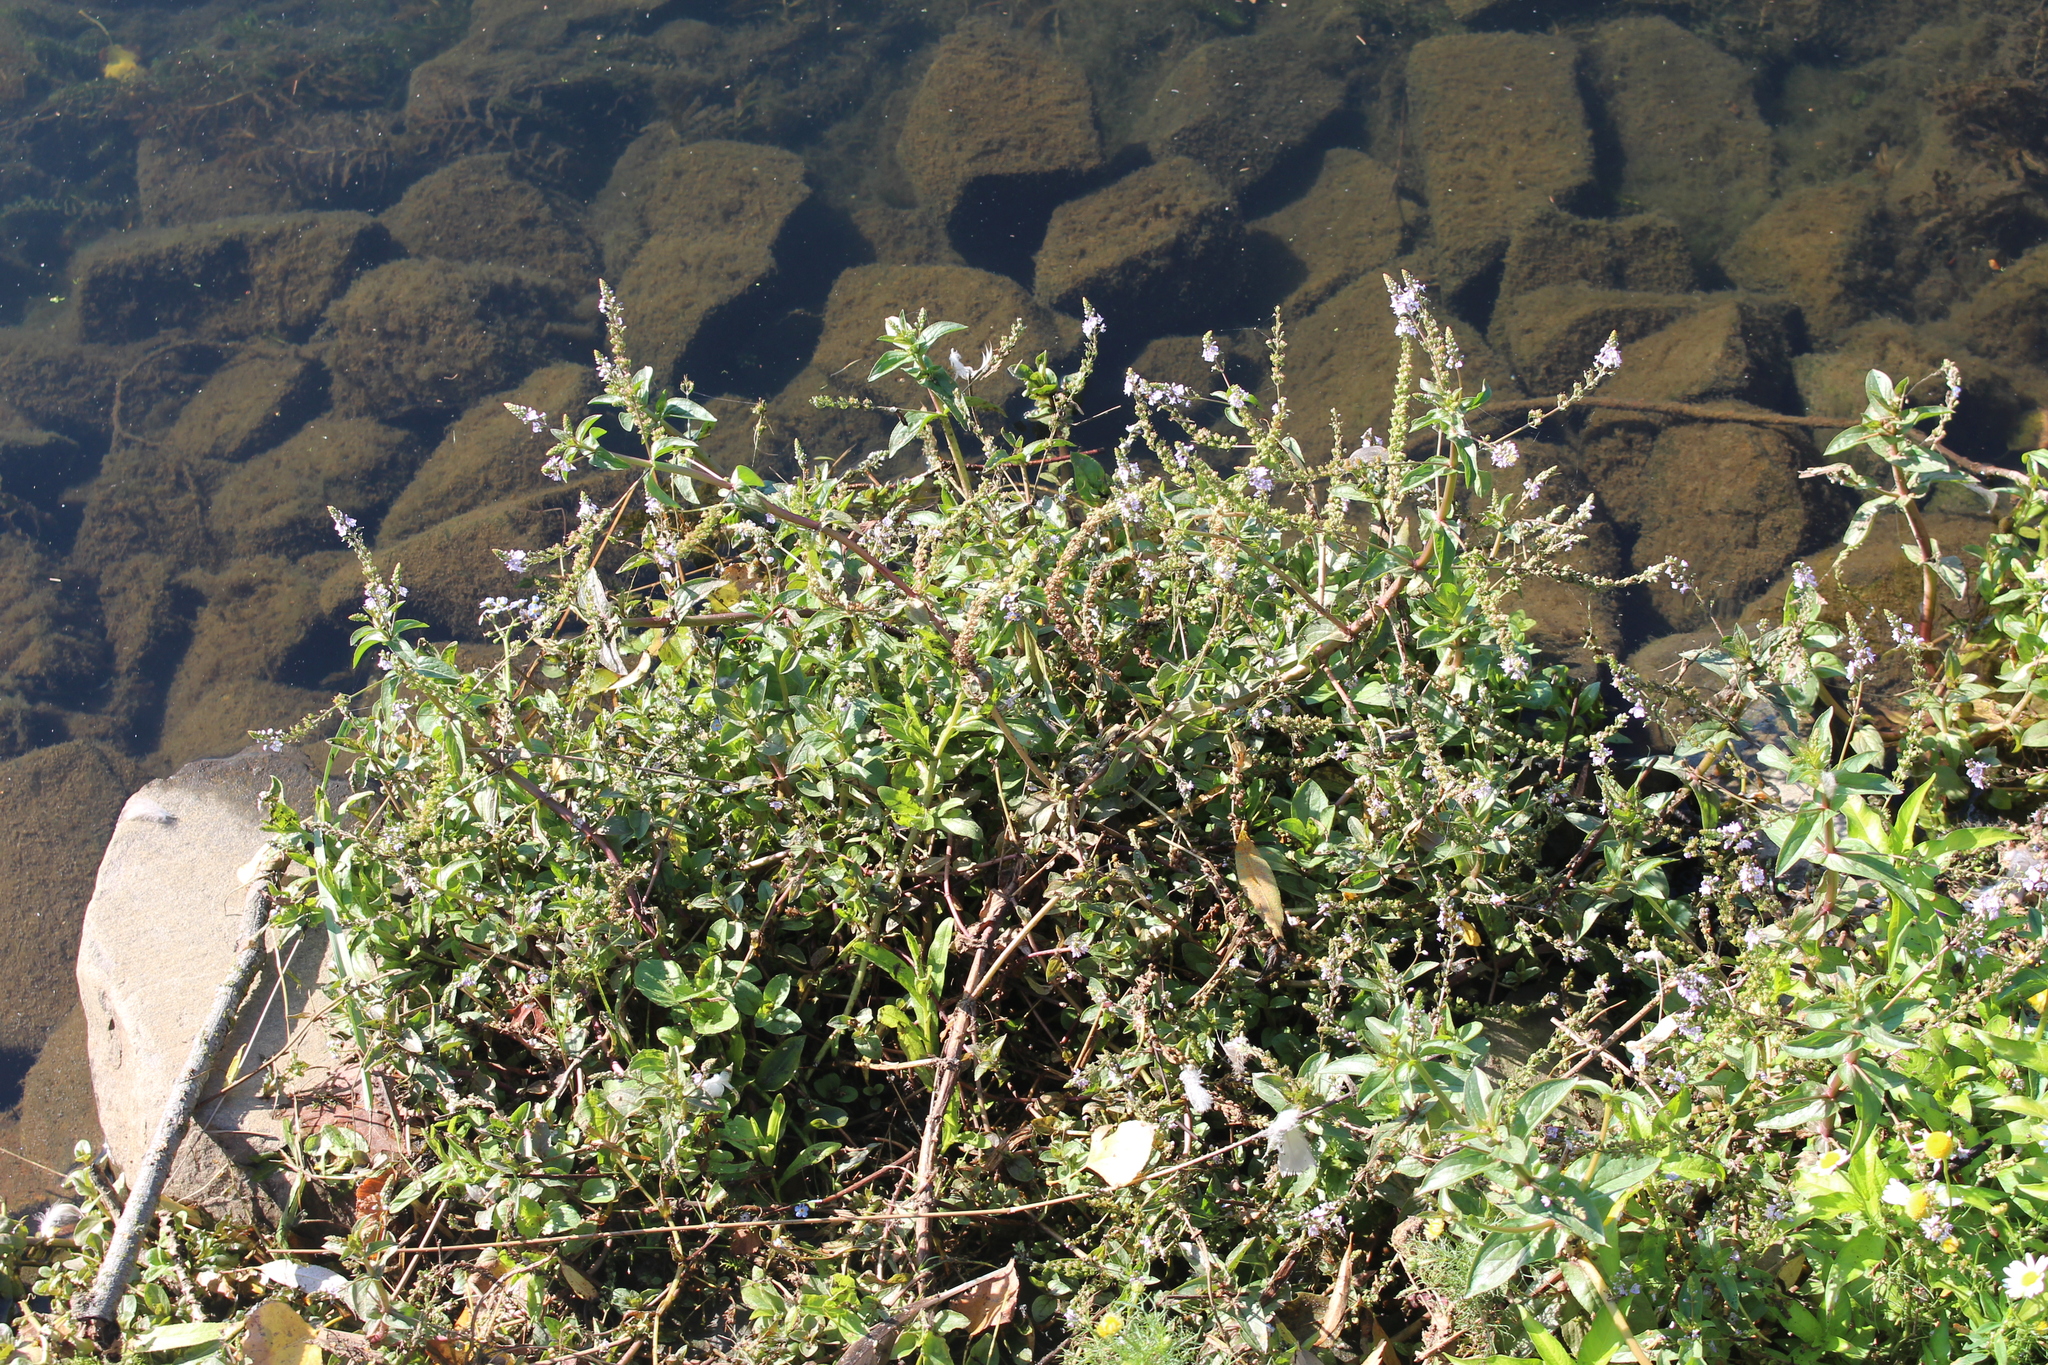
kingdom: Plantae
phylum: Tracheophyta
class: Magnoliopsida
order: Lamiales
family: Plantaginaceae
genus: Veronica
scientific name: Veronica anagallis-aquatica
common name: Water speedwell
